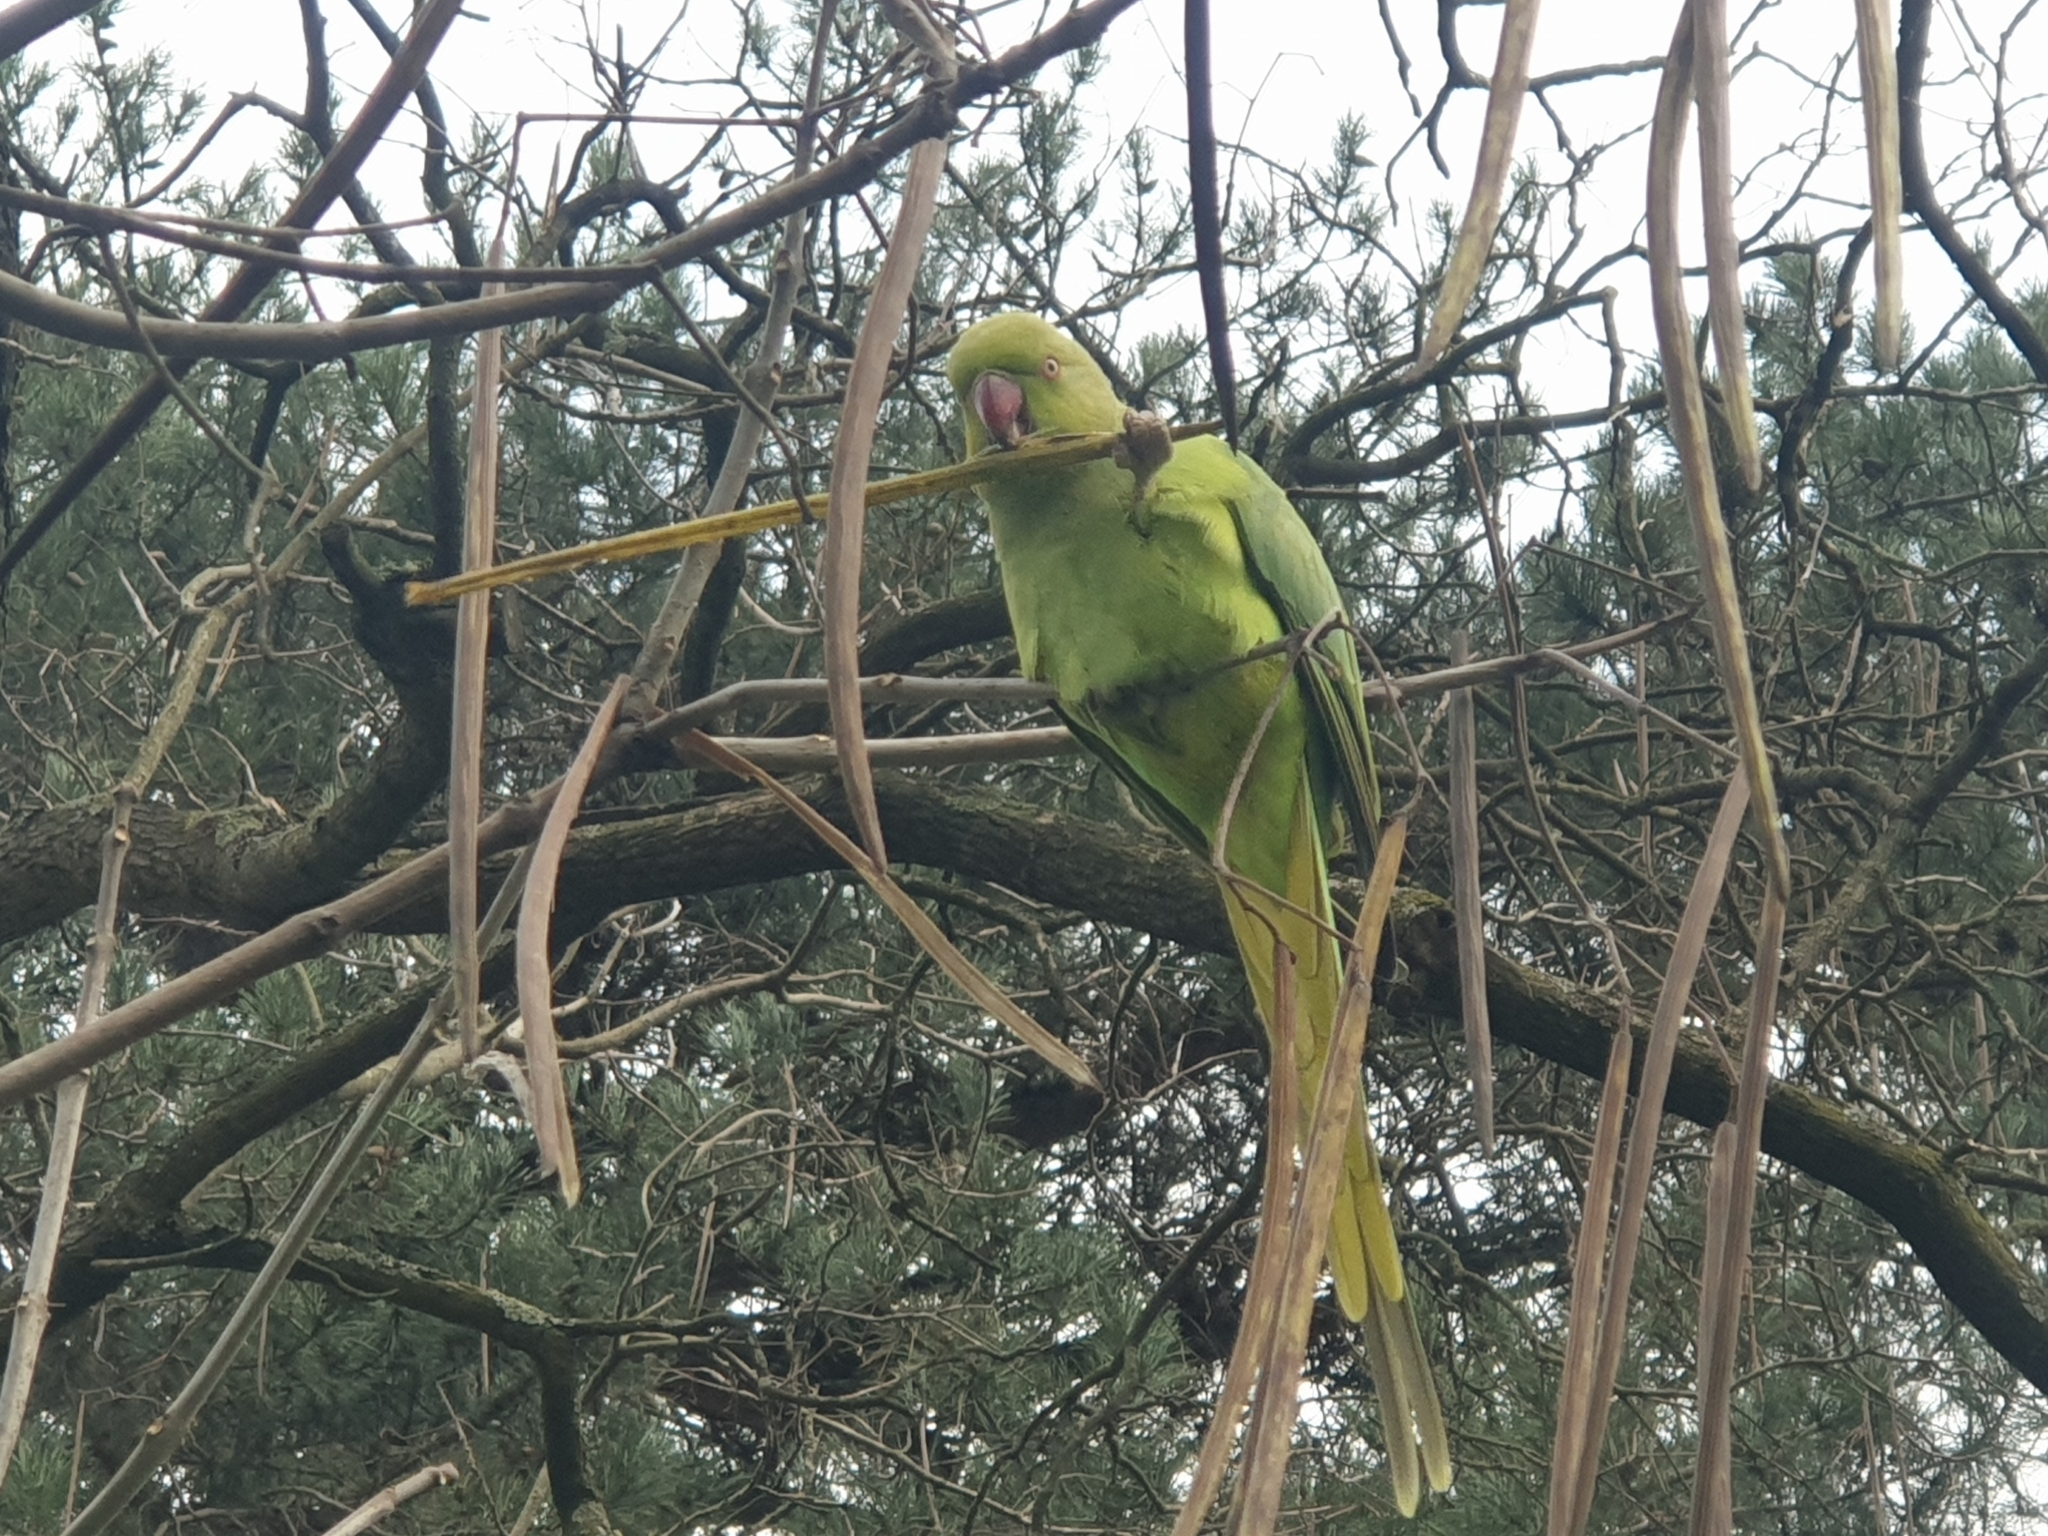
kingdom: Animalia
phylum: Chordata
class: Aves
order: Psittaciformes
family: Psittacidae
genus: Psittacula
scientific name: Psittacula krameri
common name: Rose-ringed parakeet
